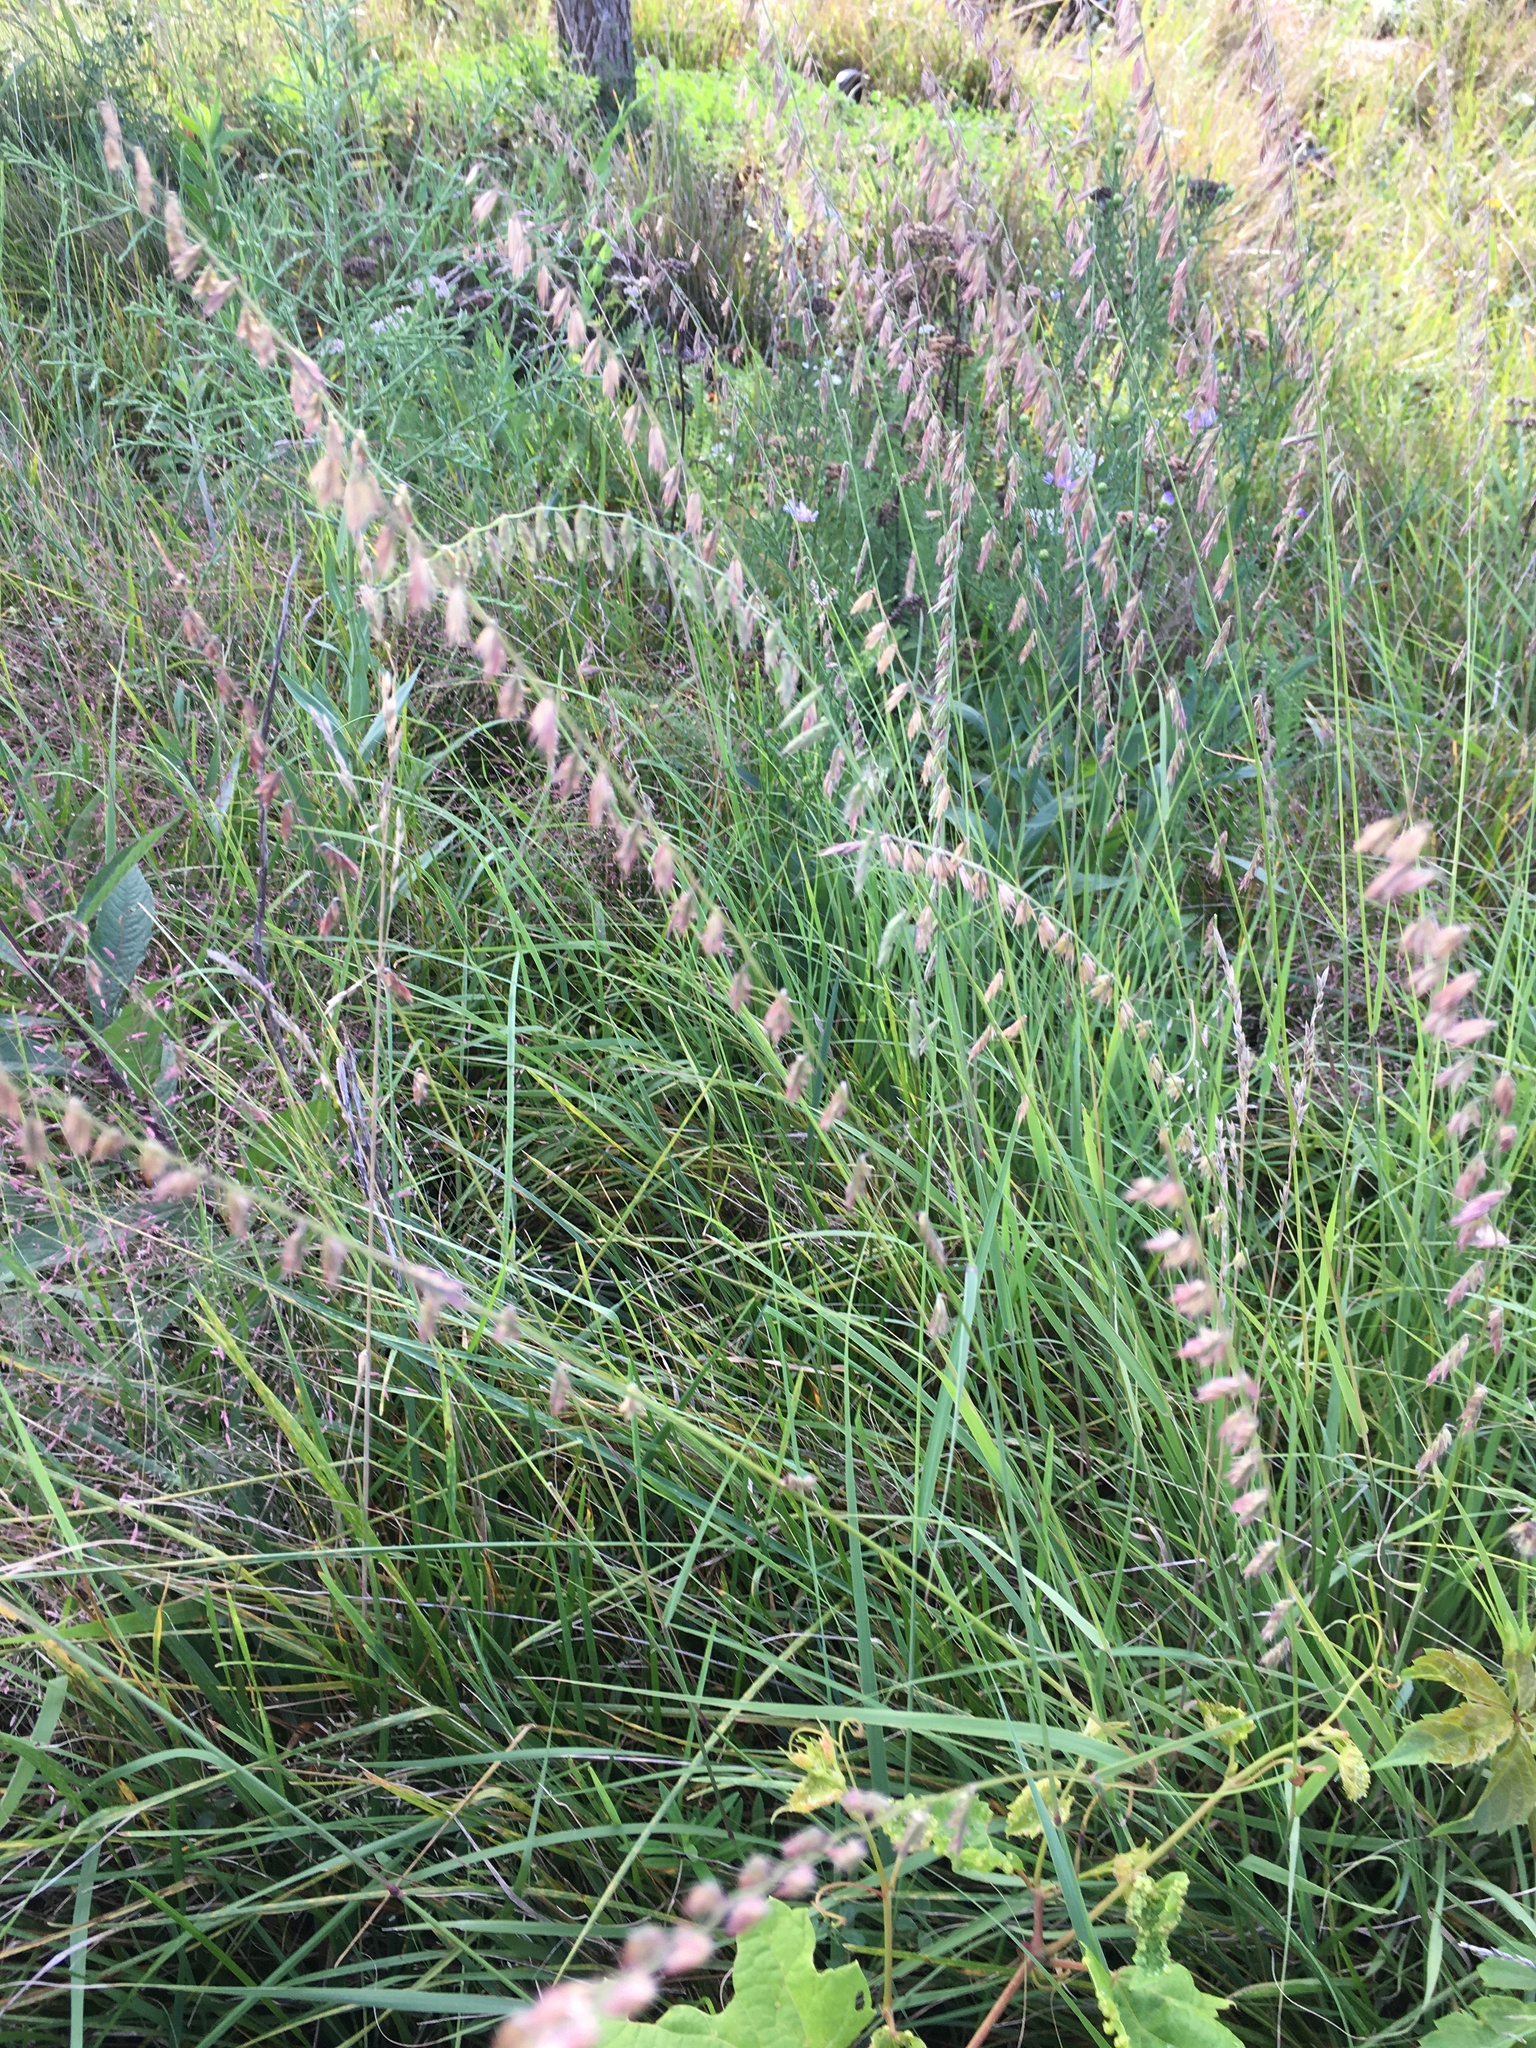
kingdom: Plantae
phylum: Tracheophyta
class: Liliopsida
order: Poales
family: Poaceae
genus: Bouteloua
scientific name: Bouteloua curtipendula
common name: Side-oats grama
